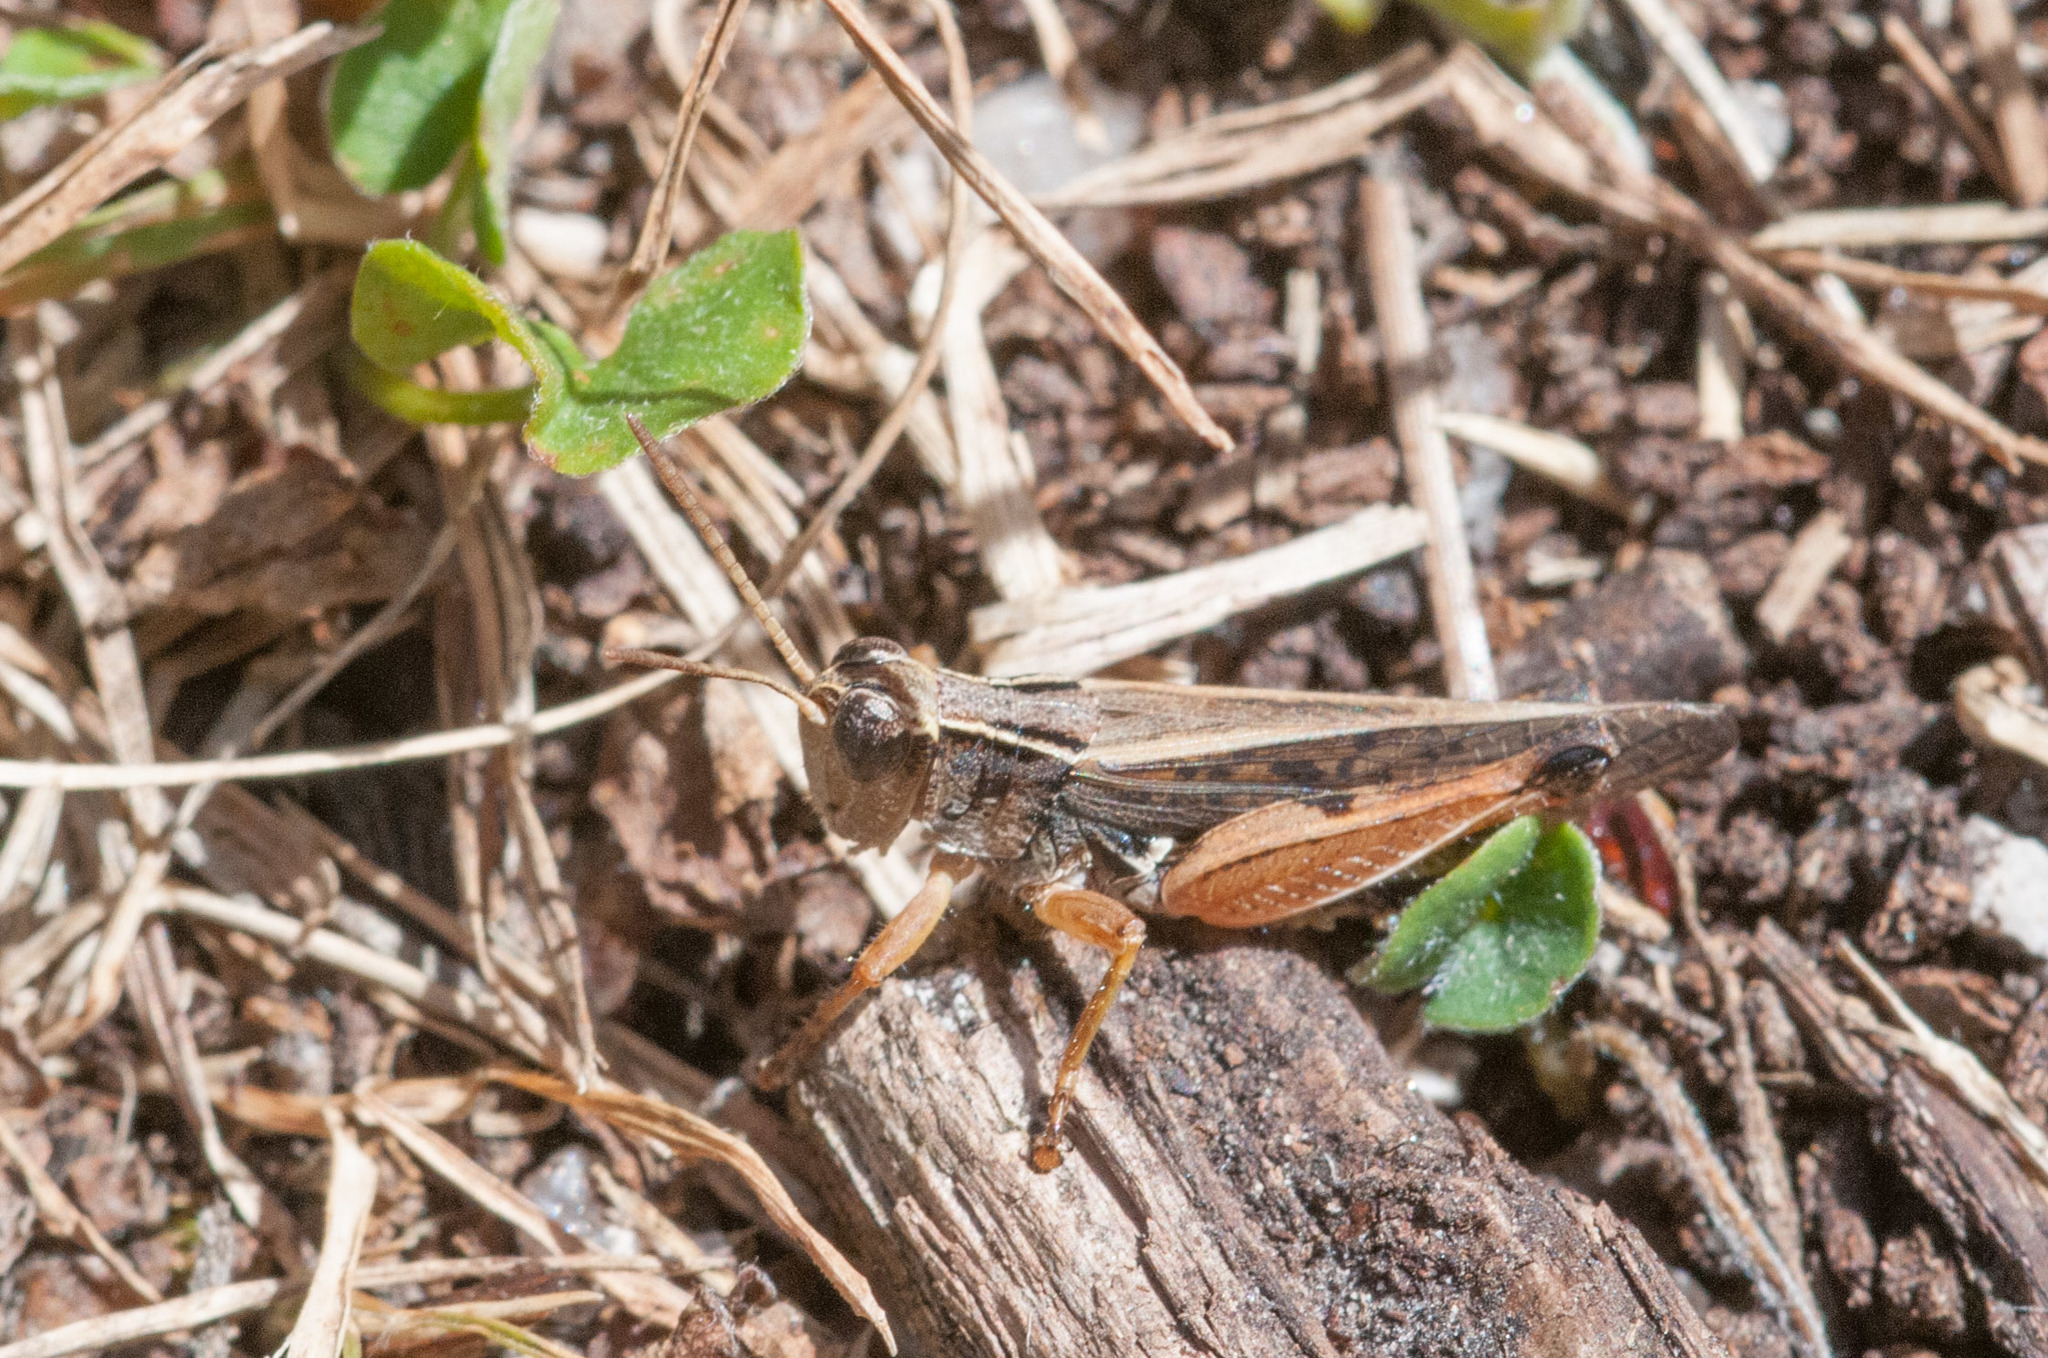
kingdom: Animalia
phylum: Arthropoda
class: Insecta
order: Orthoptera
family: Acrididae
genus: Phaulacridium
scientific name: Phaulacridium vittatum
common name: Wingless grasshopper
